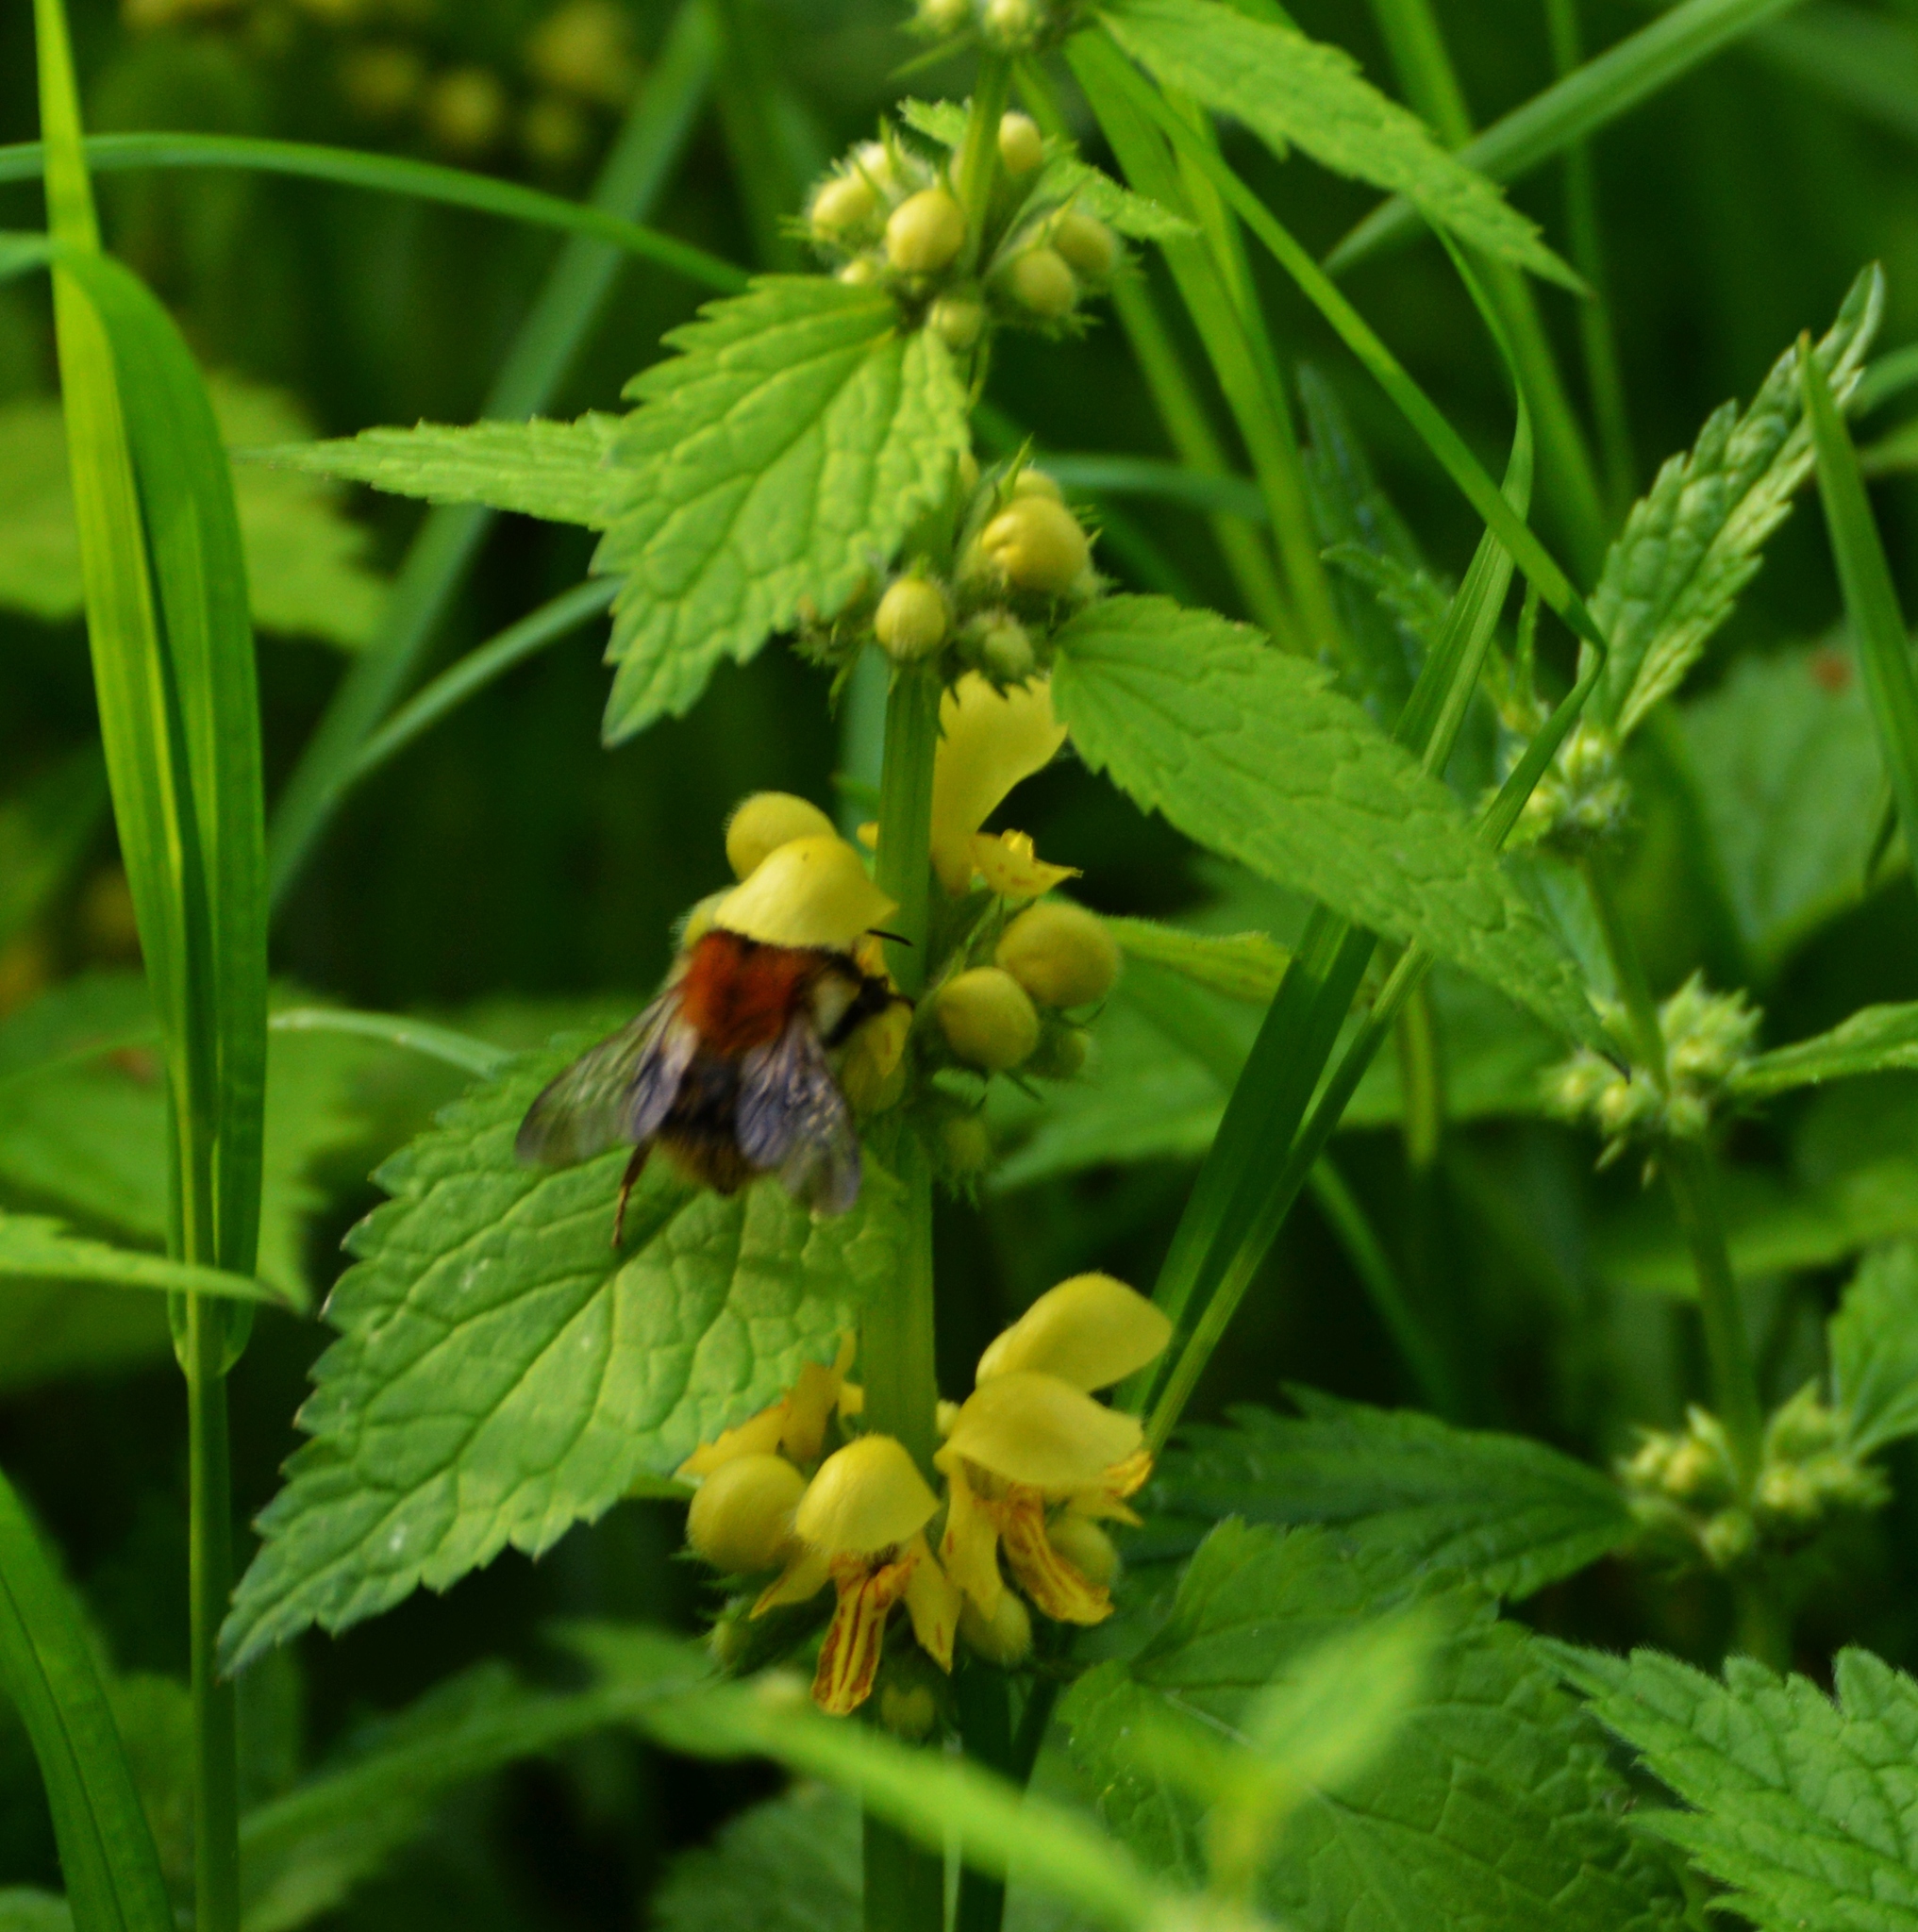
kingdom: Animalia
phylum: Arthropoda
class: Insecta
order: Hymenoptera
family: Apidae
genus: Bombus
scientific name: Bombus pascuorum
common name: Common carder bee
